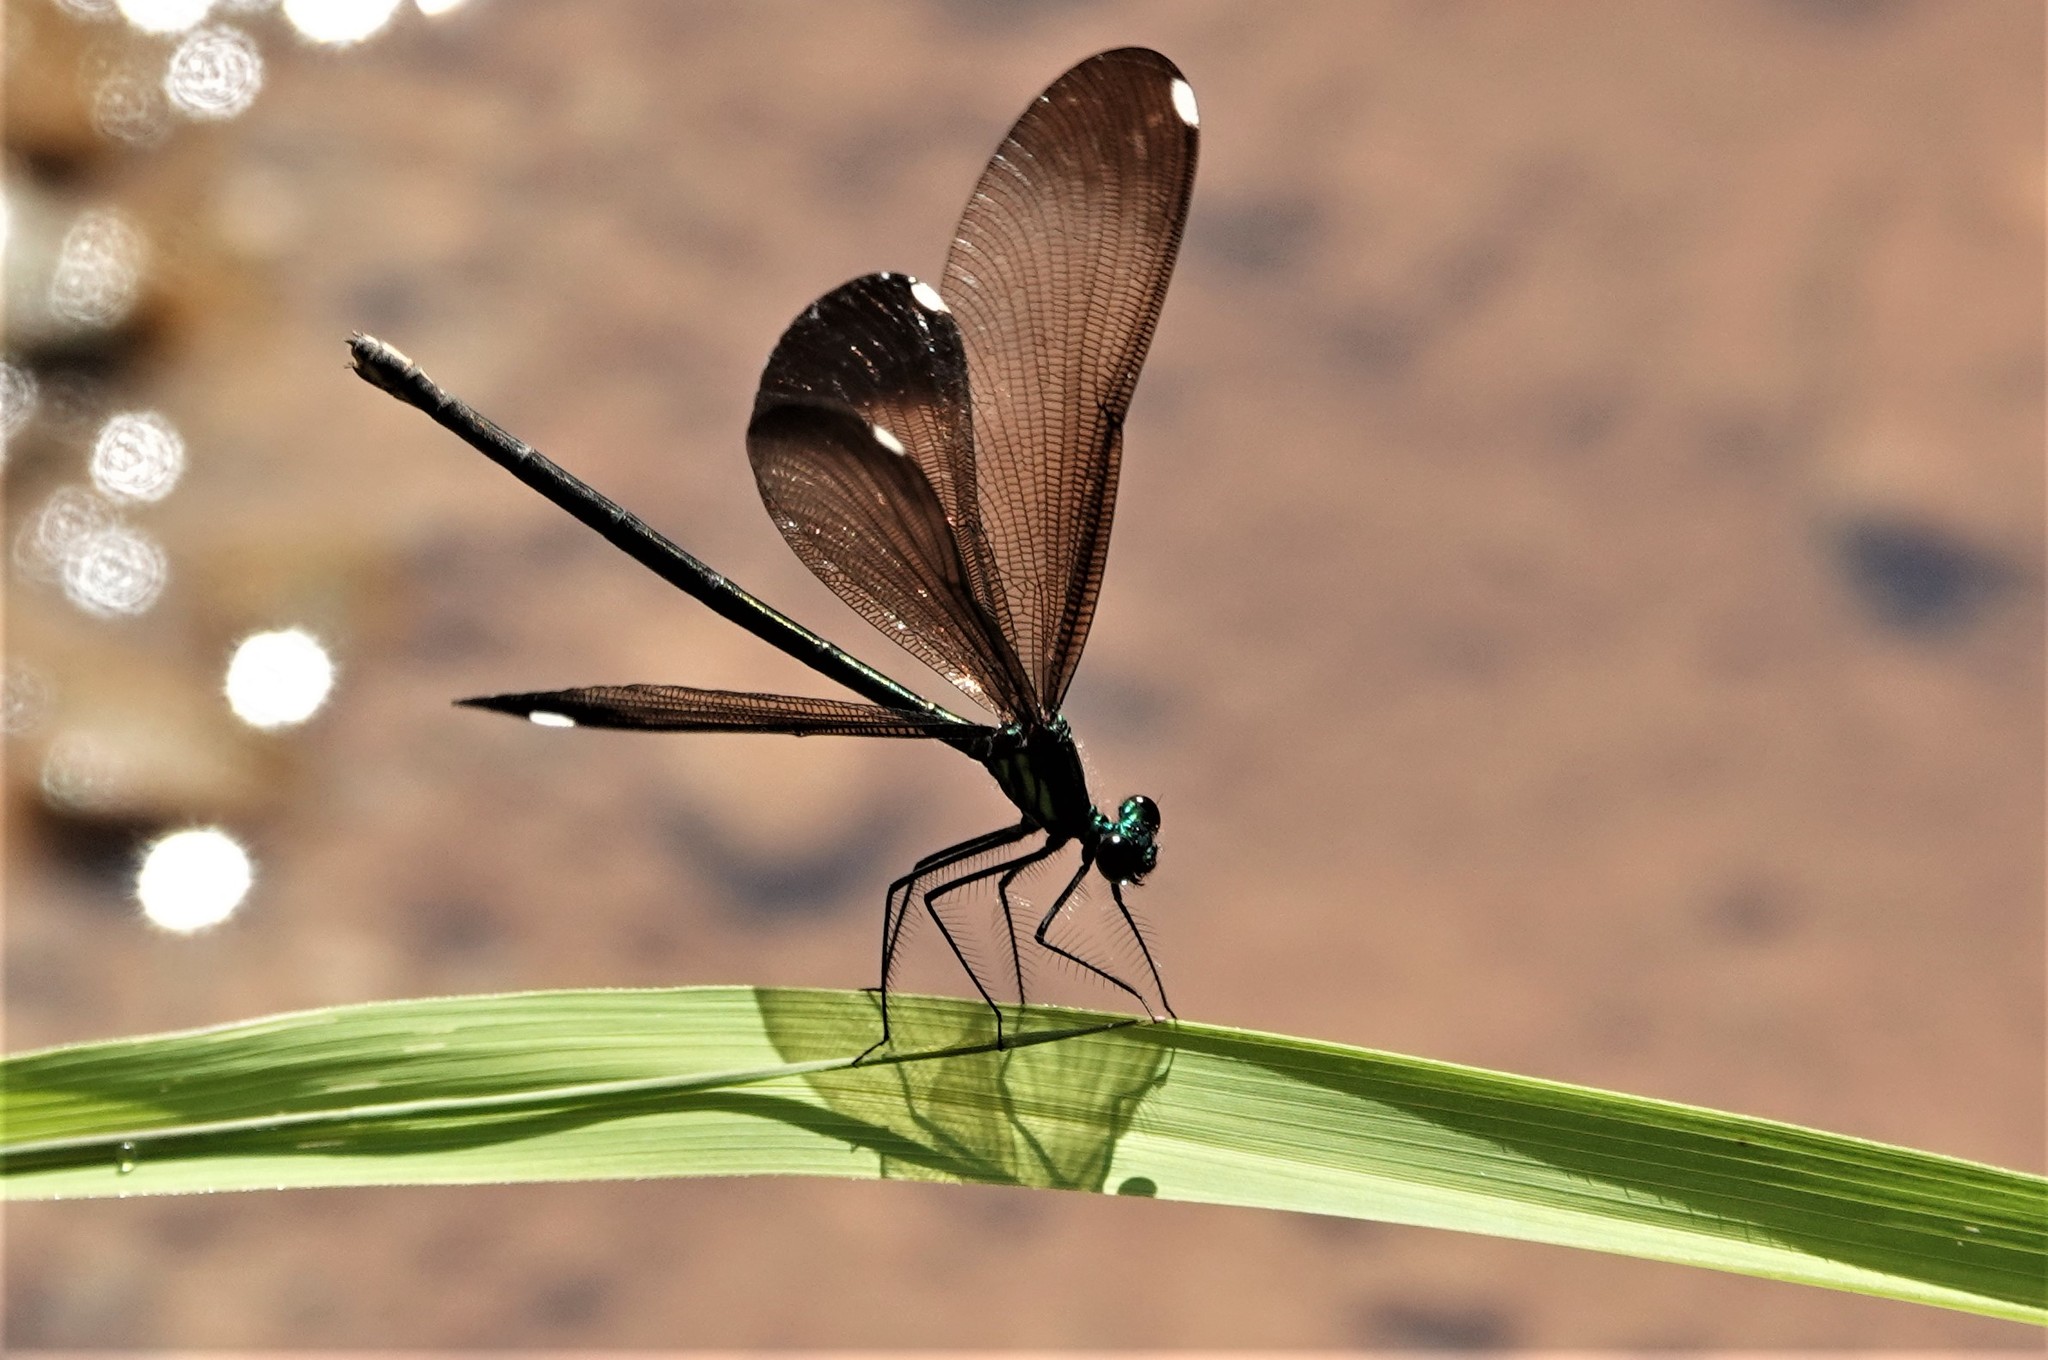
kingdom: Animalia
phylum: Arthropoda
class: Insecta
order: Odonata
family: Calopterygidae
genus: Calopteryx
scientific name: Calopteryx maculata
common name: Ebony jewelwing
